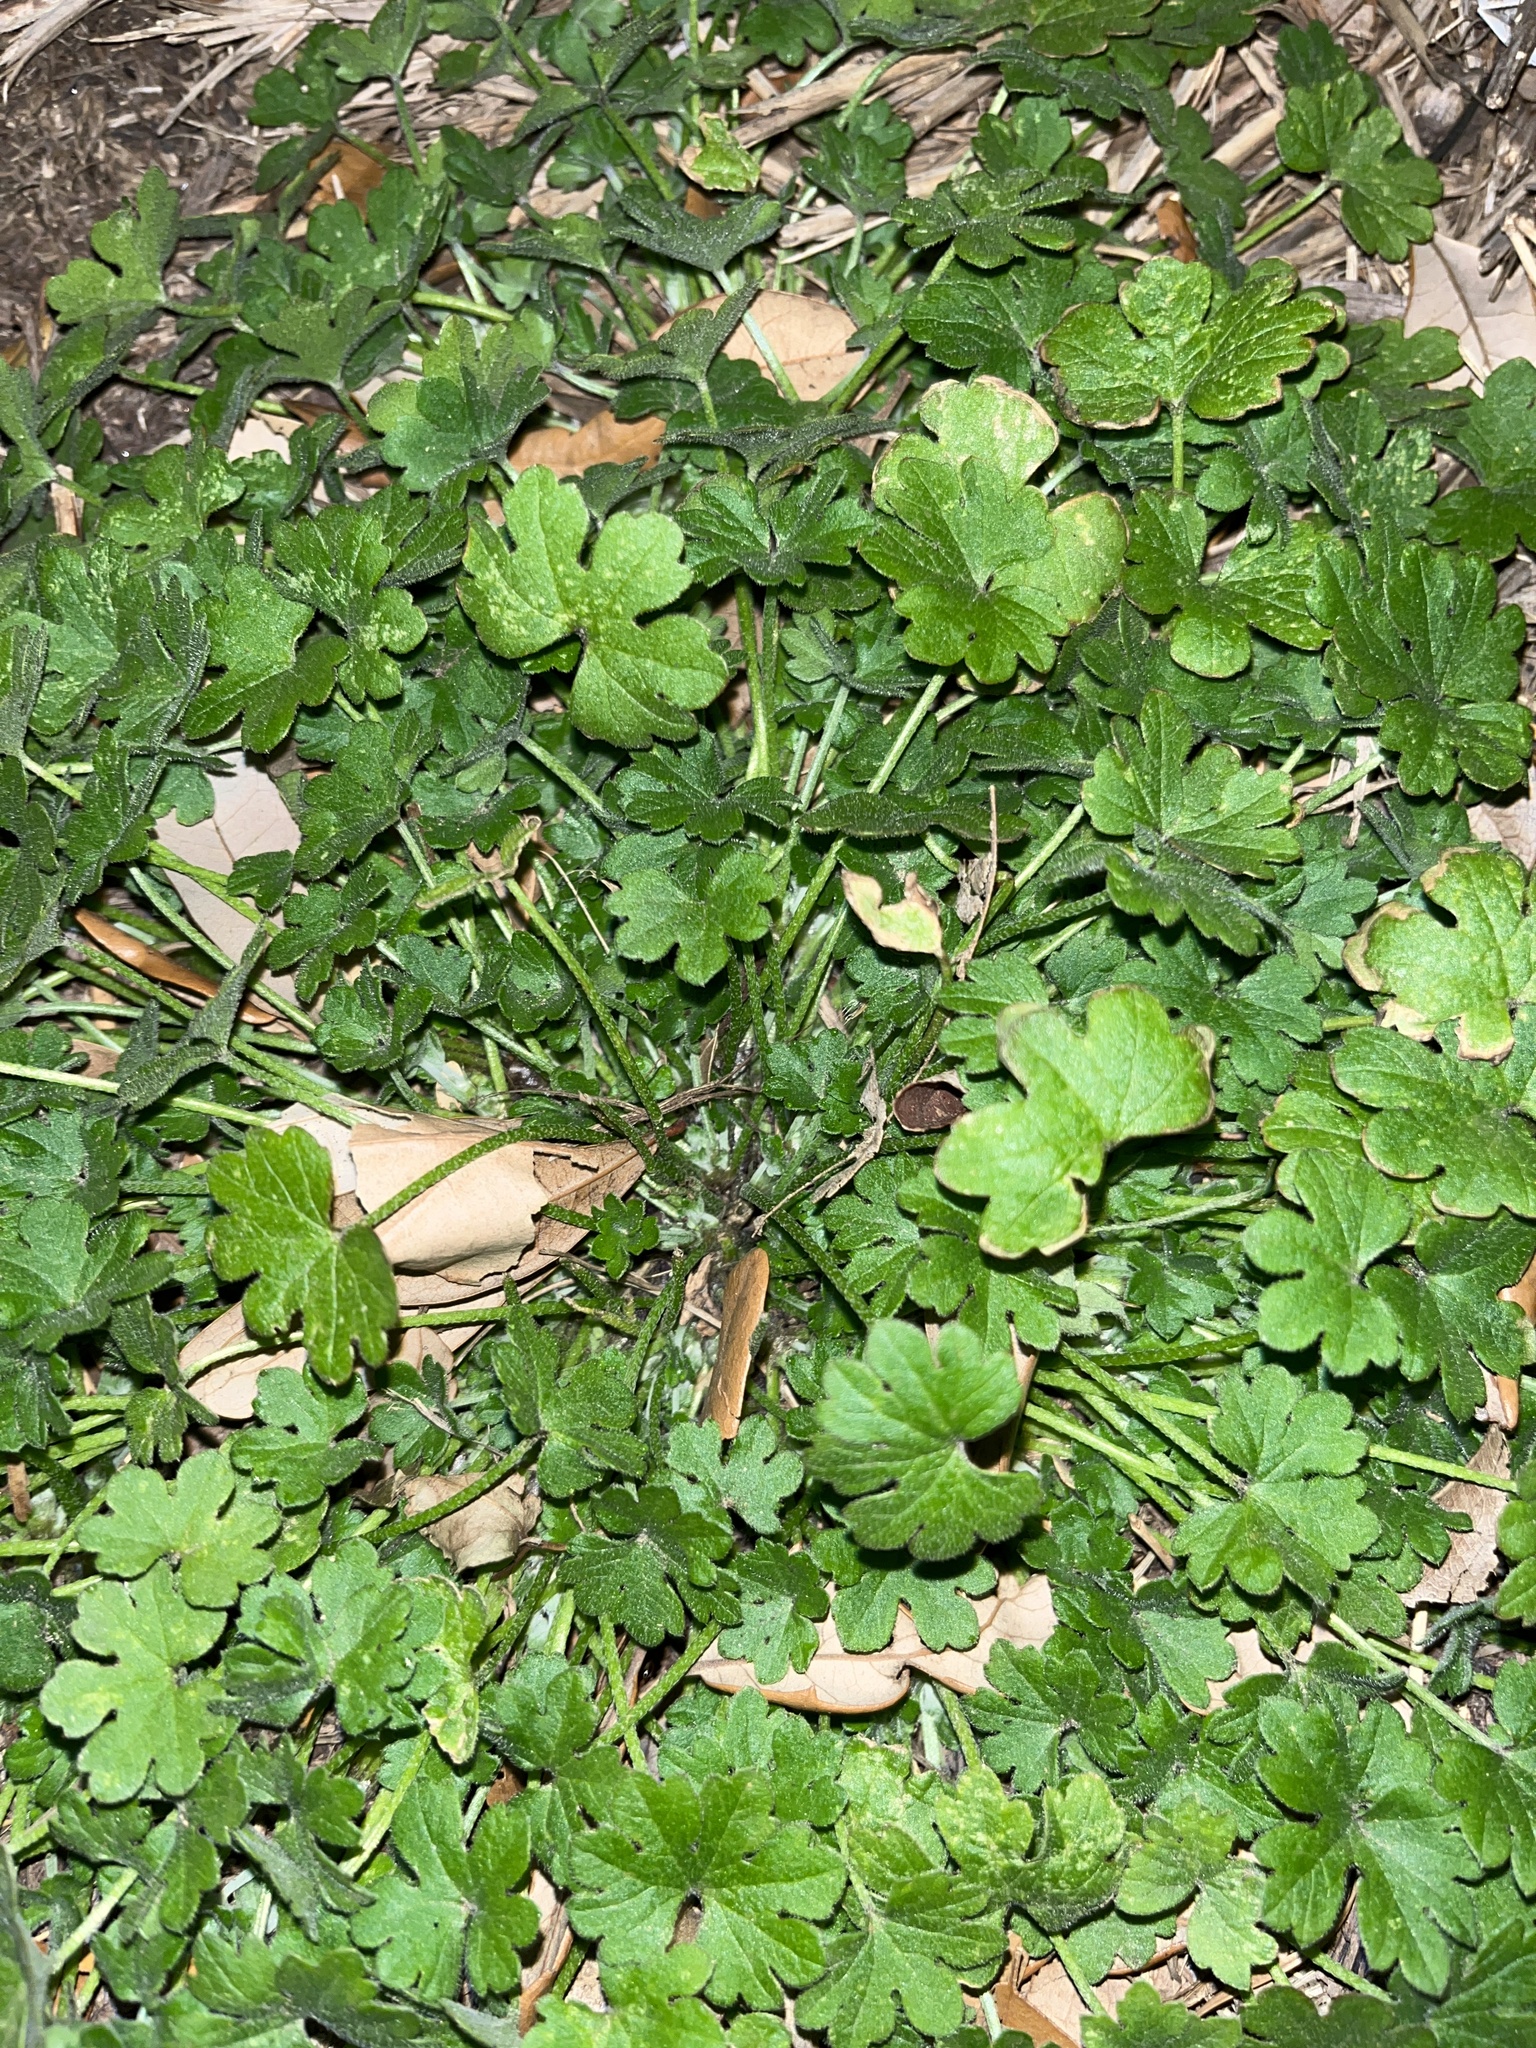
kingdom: Plantae
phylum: Tracheophyta
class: Magnoliopsida
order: Apiales
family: Apiaceae
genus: Bowlesia
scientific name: Bowlesia incana
